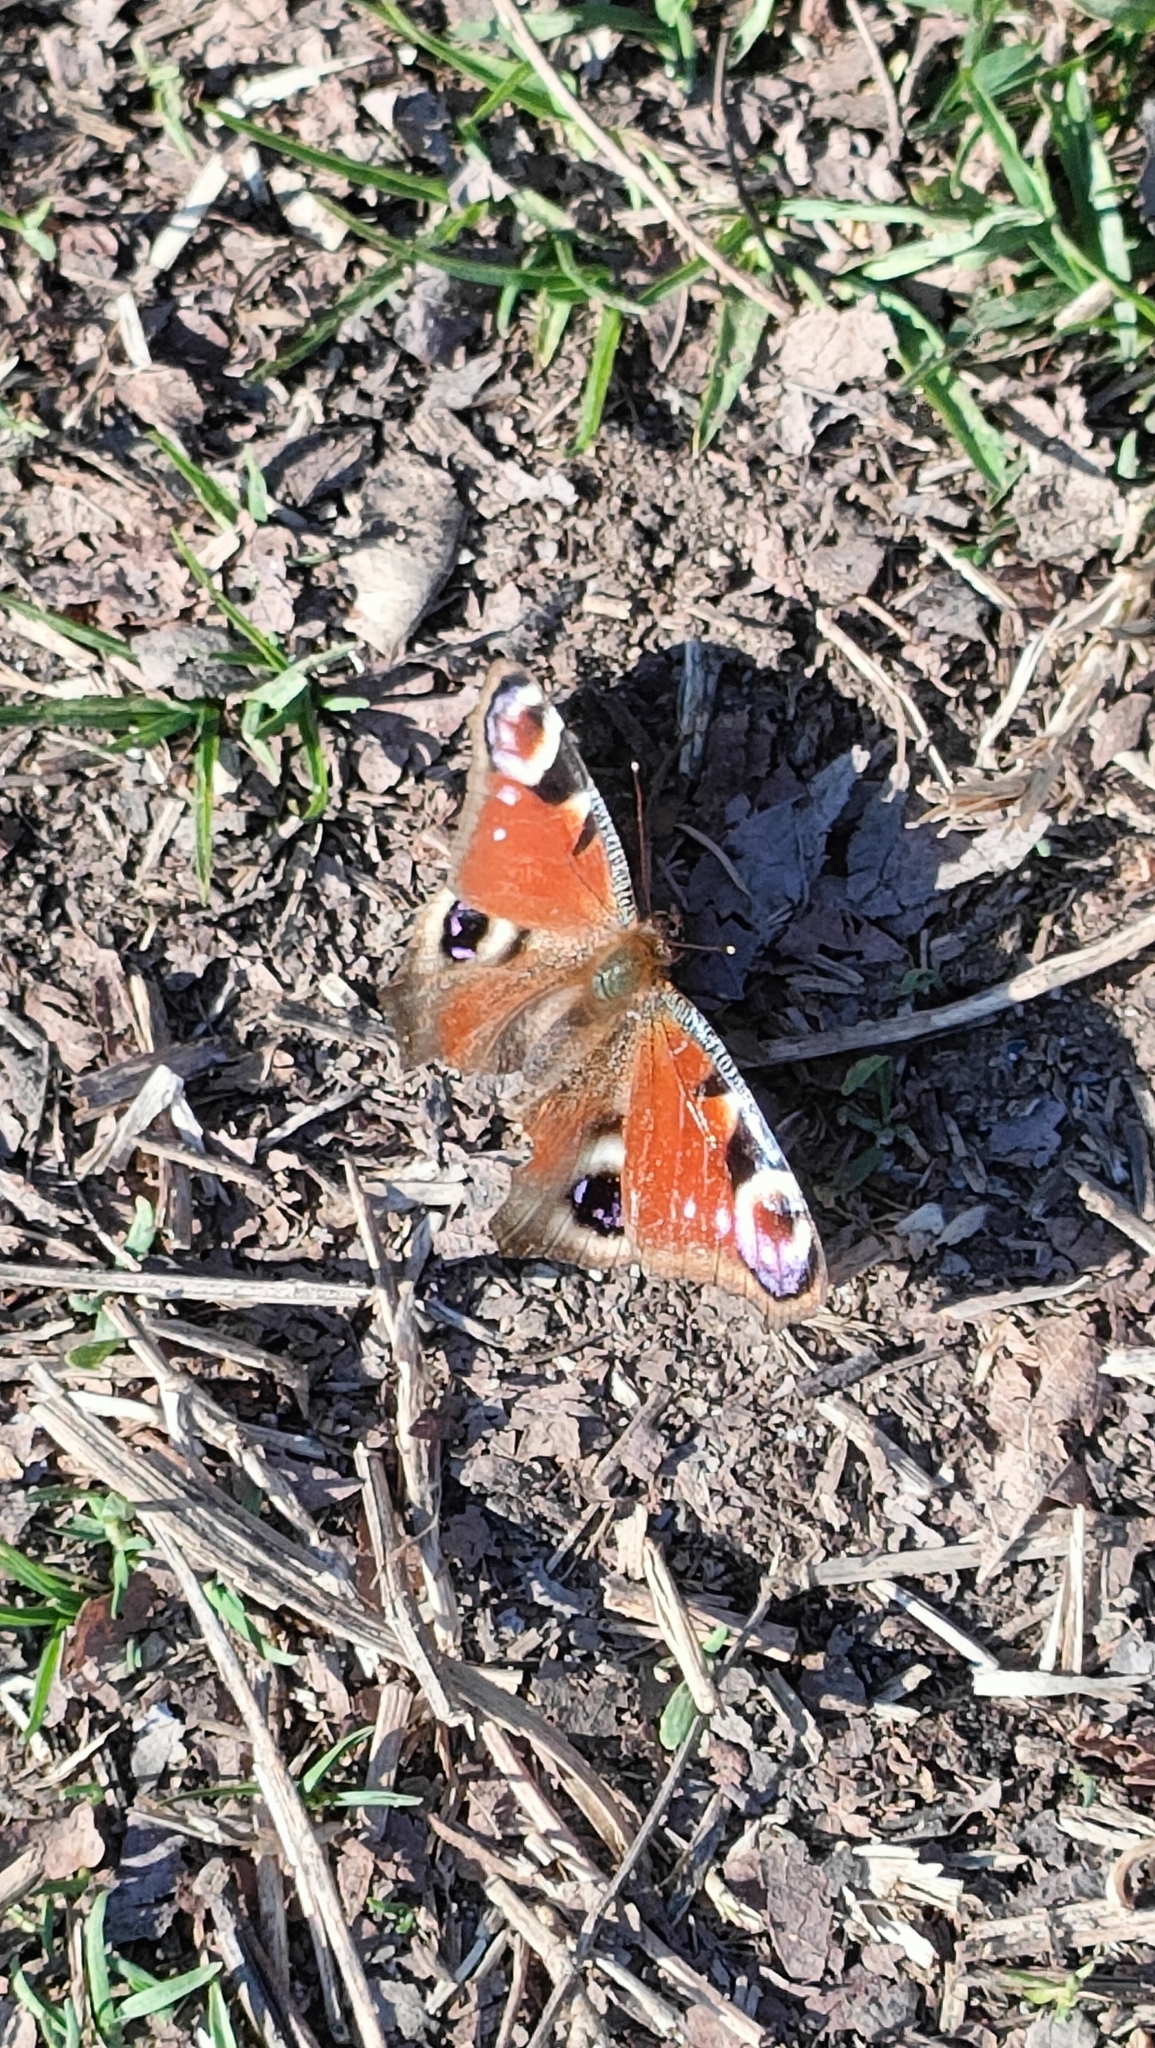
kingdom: Animalia
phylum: Arthropoda
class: Insecta
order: Lepidoptera
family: Nymphalidae
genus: Aglais
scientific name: Aglais io
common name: Peacock
